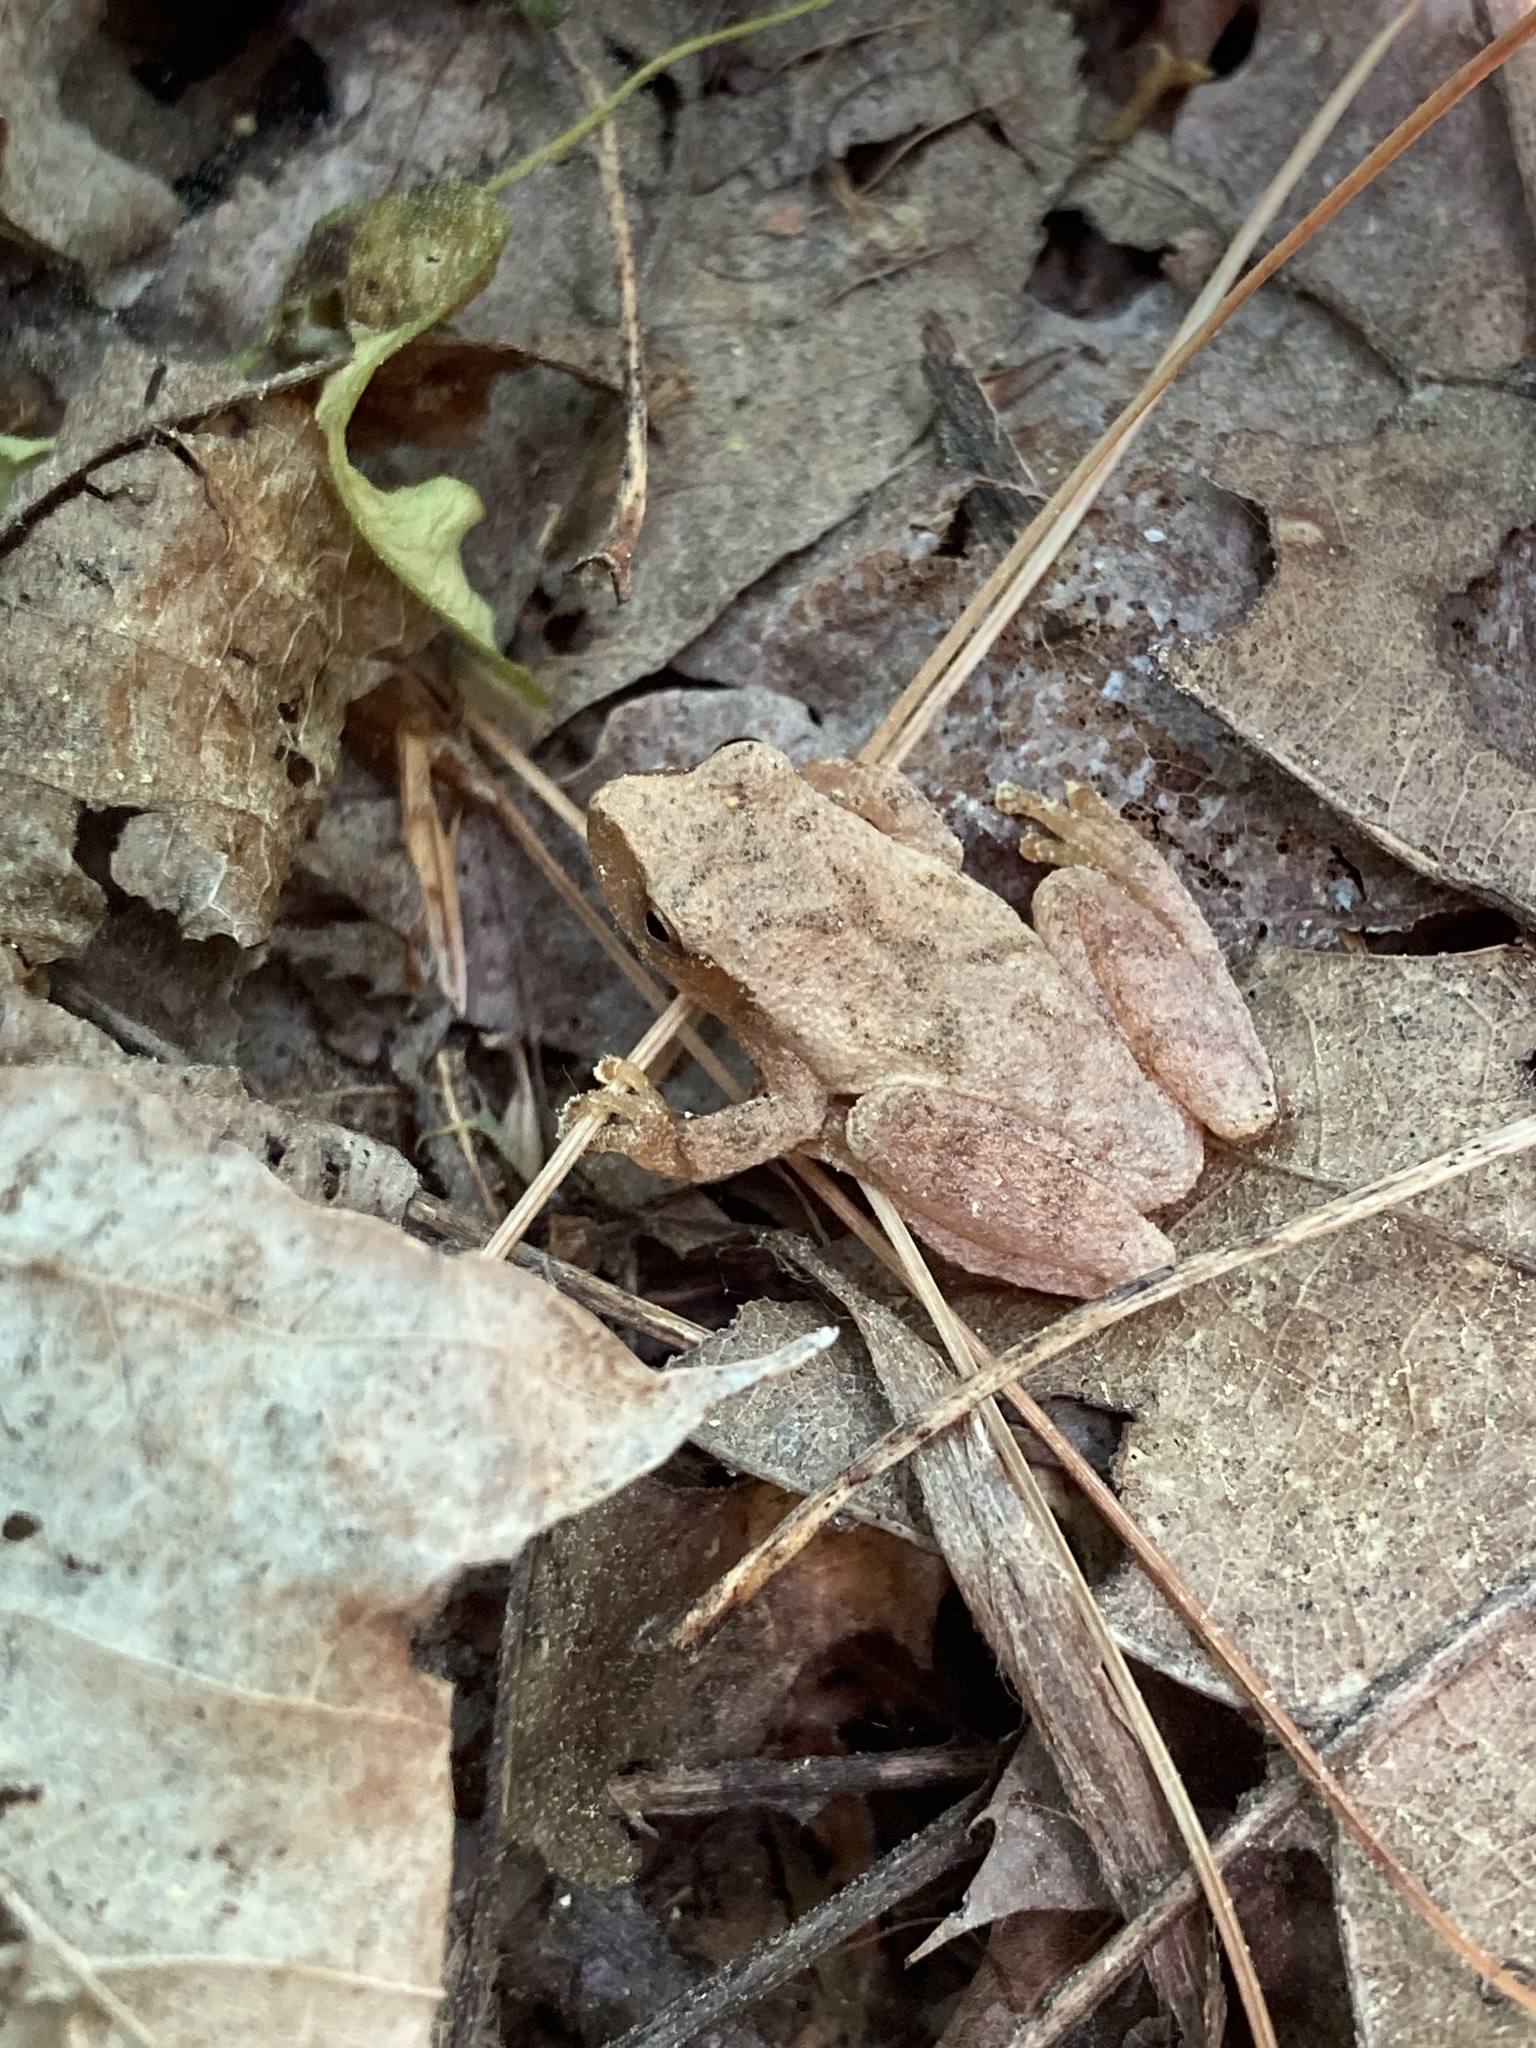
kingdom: Animalia
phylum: Chordata
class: Amphibia
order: Anura
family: Hylidae
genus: Pseudacris
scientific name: Pseudacris crucifer
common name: Spring peeper
